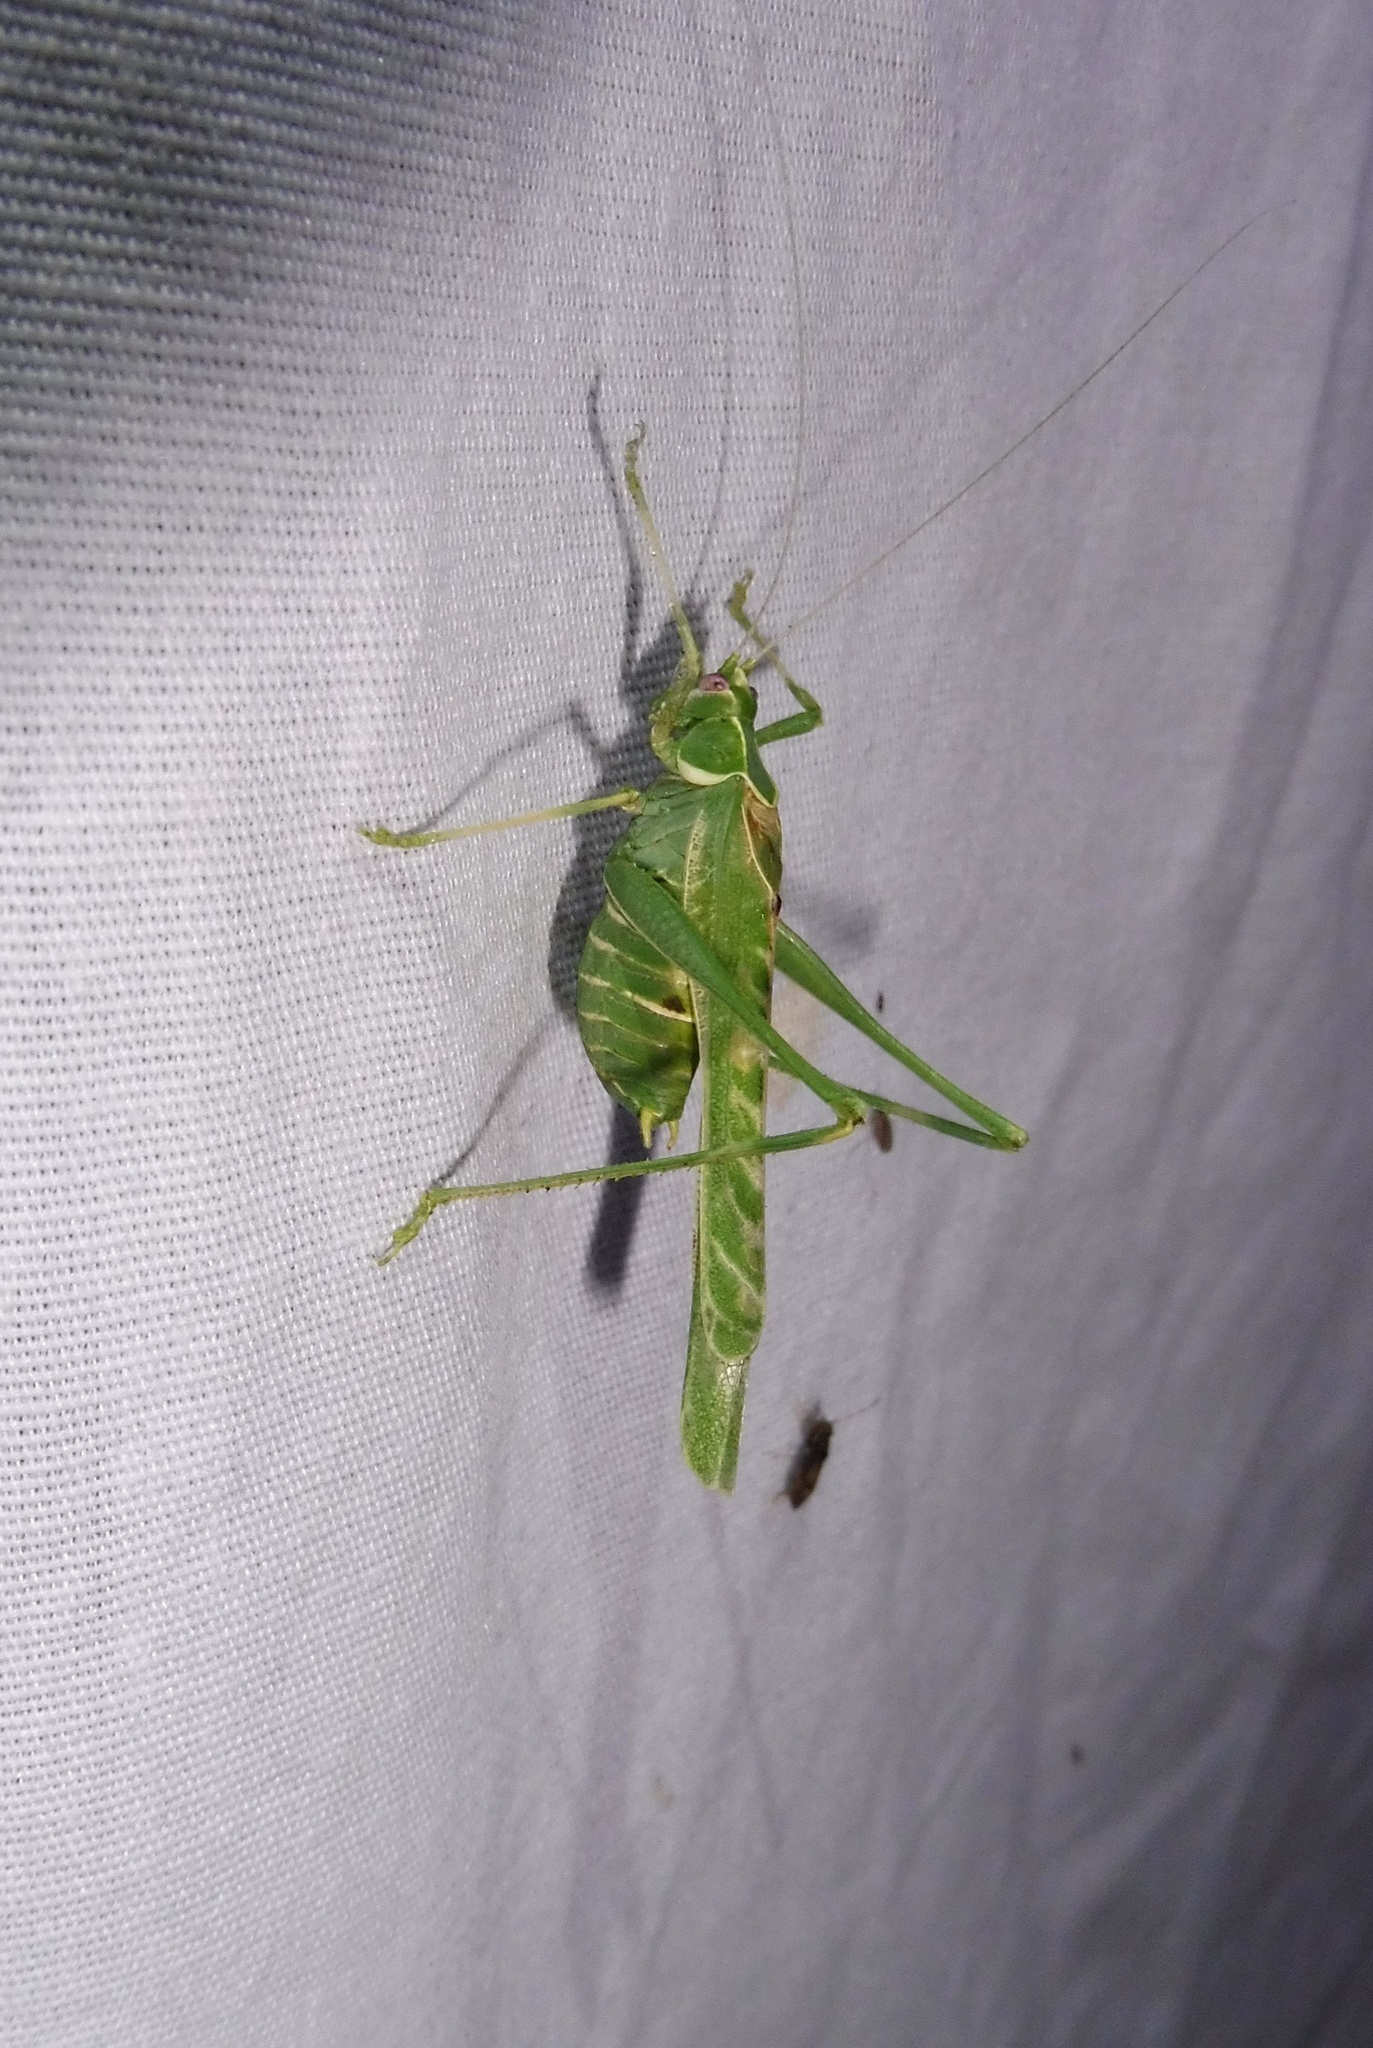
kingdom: Animalia
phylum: Arthropoda
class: Insecta
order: Orthoptera
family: Tettigoniidae
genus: Insara
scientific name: Insara elegans
